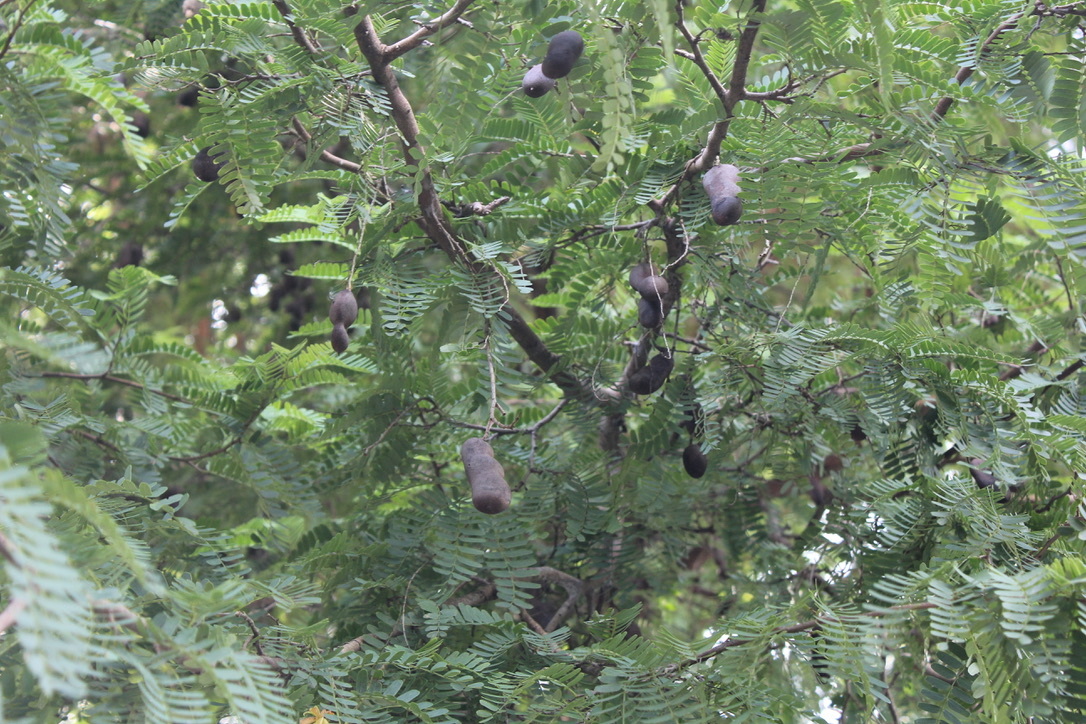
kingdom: Plantae
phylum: Tracheophyta
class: Magnoliopsida
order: Fabales
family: Fabaceae
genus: Tamarindus
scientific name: Tamarindus indica
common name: Tamarind
